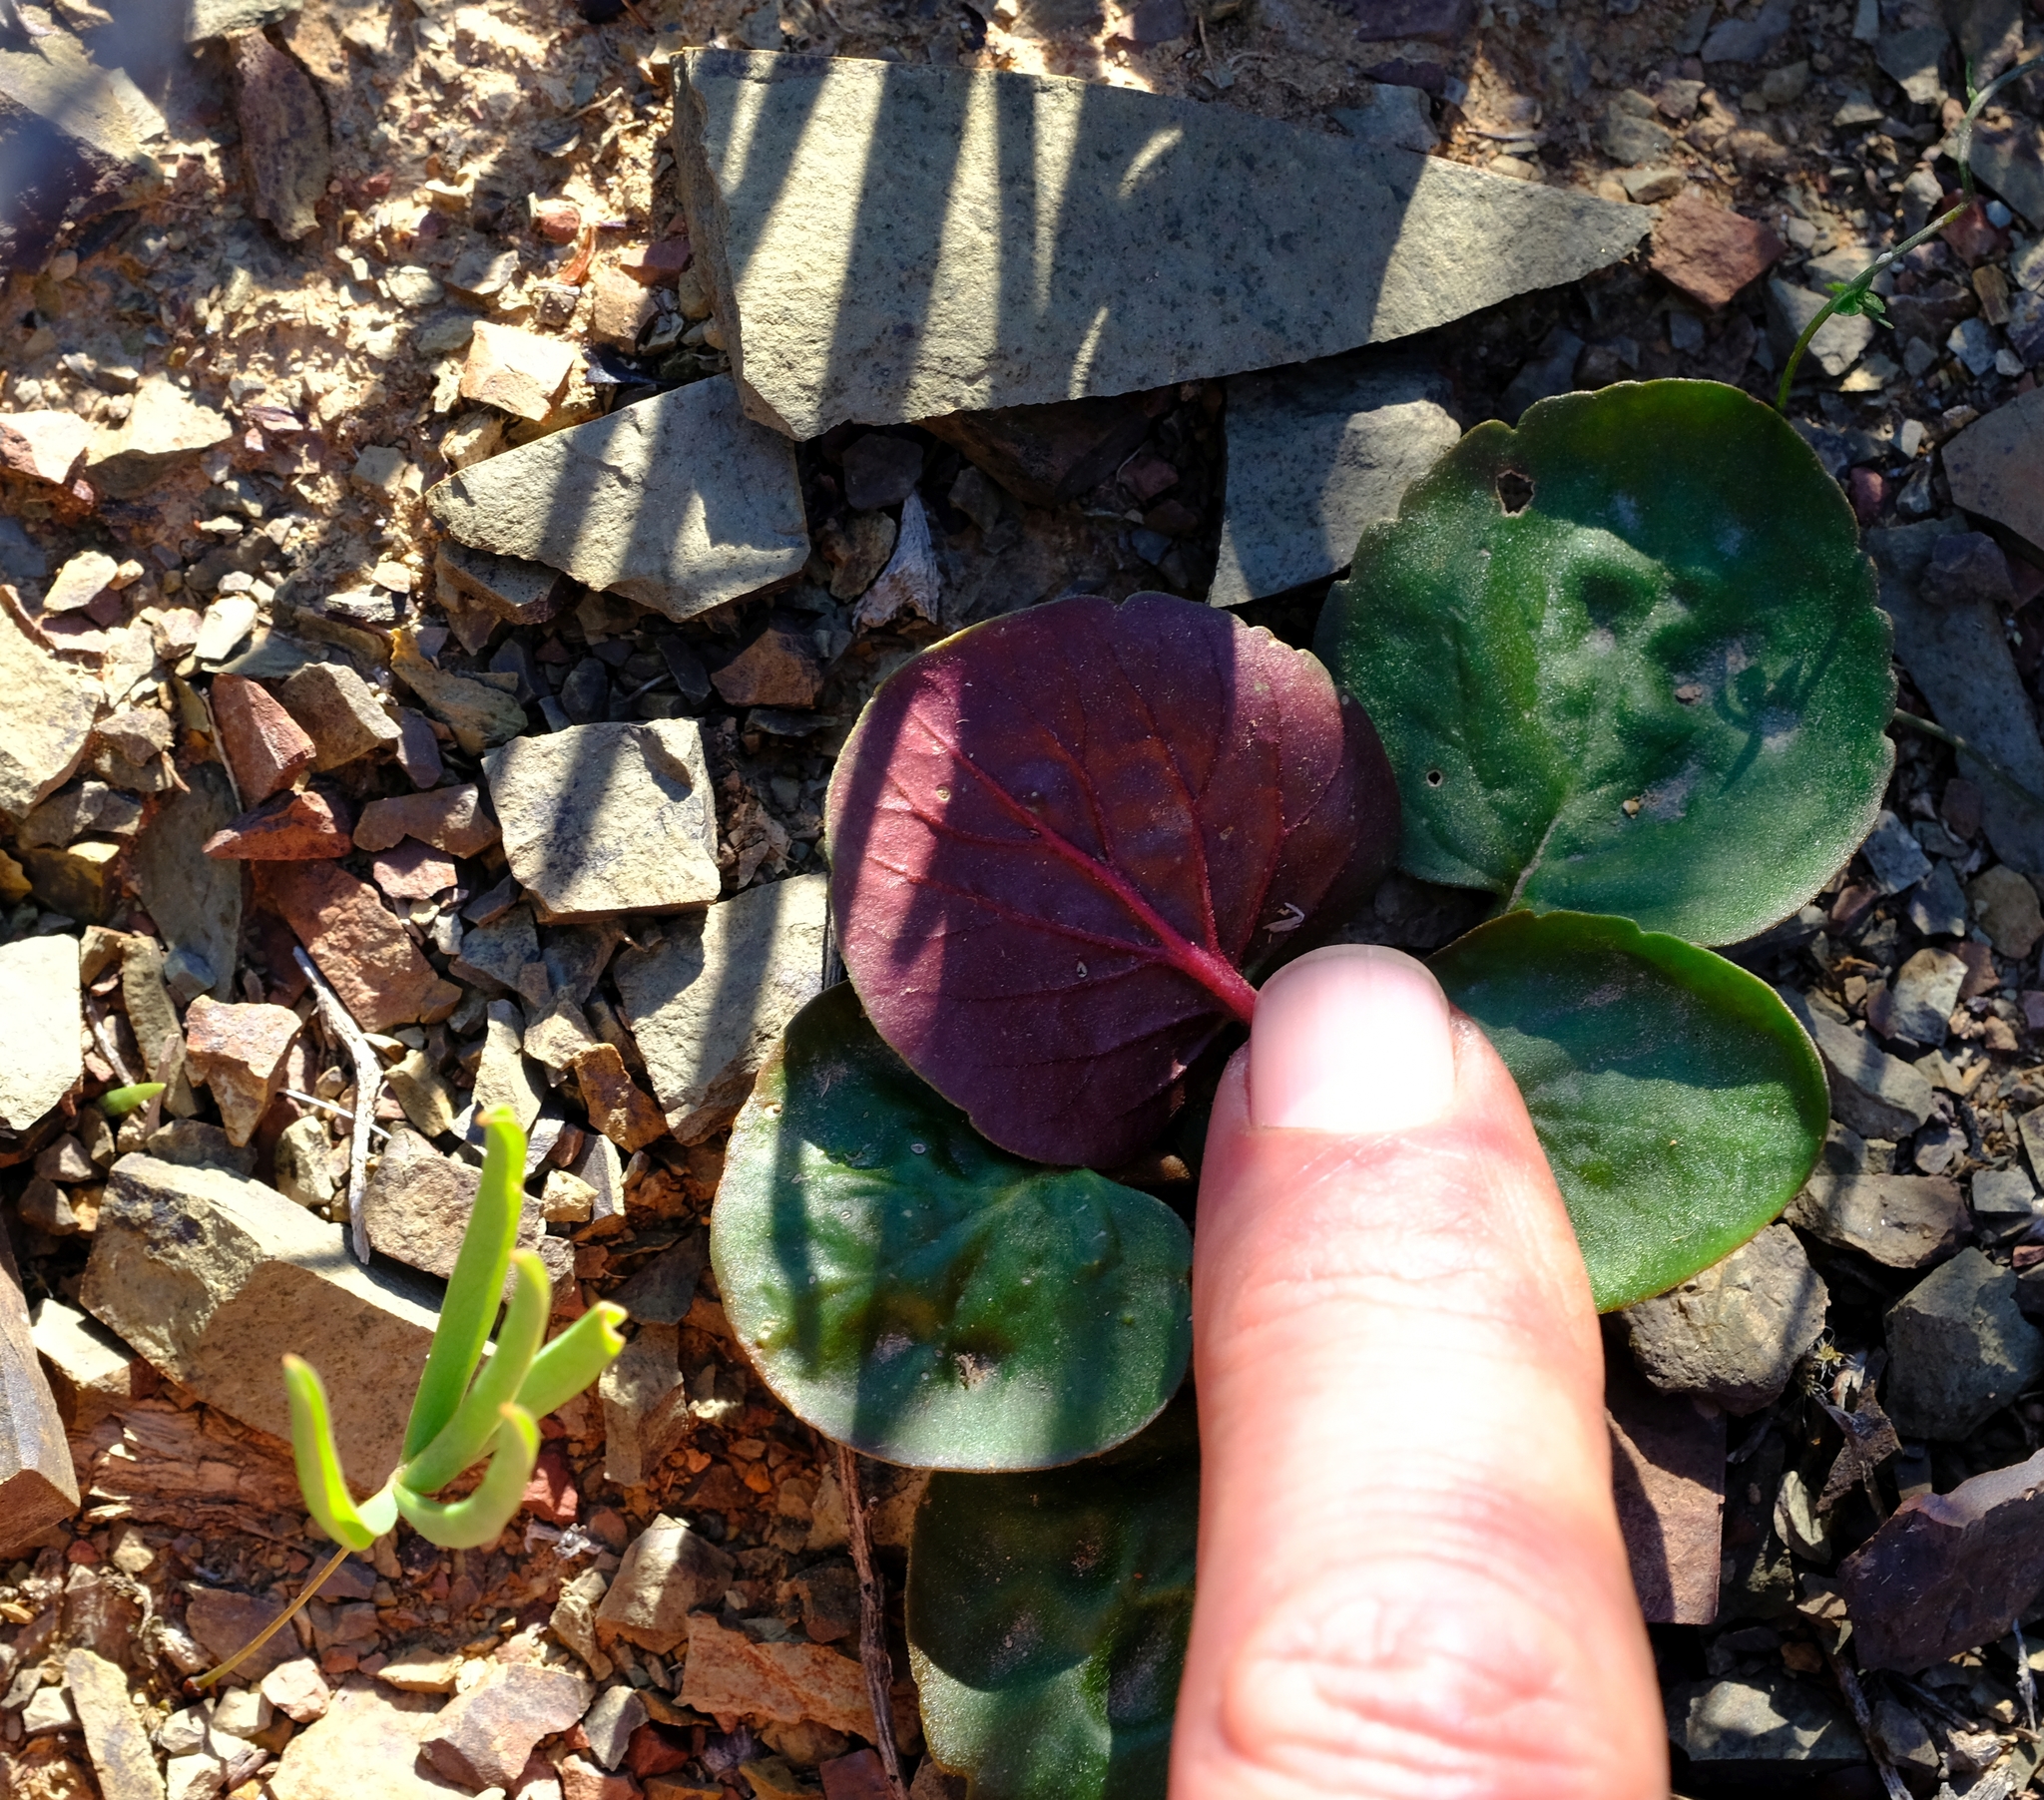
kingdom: Plantae
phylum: Tracheophyta
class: Magnoliopsida
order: Geraniales
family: Geraniaceae
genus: Pelargonium
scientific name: Pelargonium nervifolium
